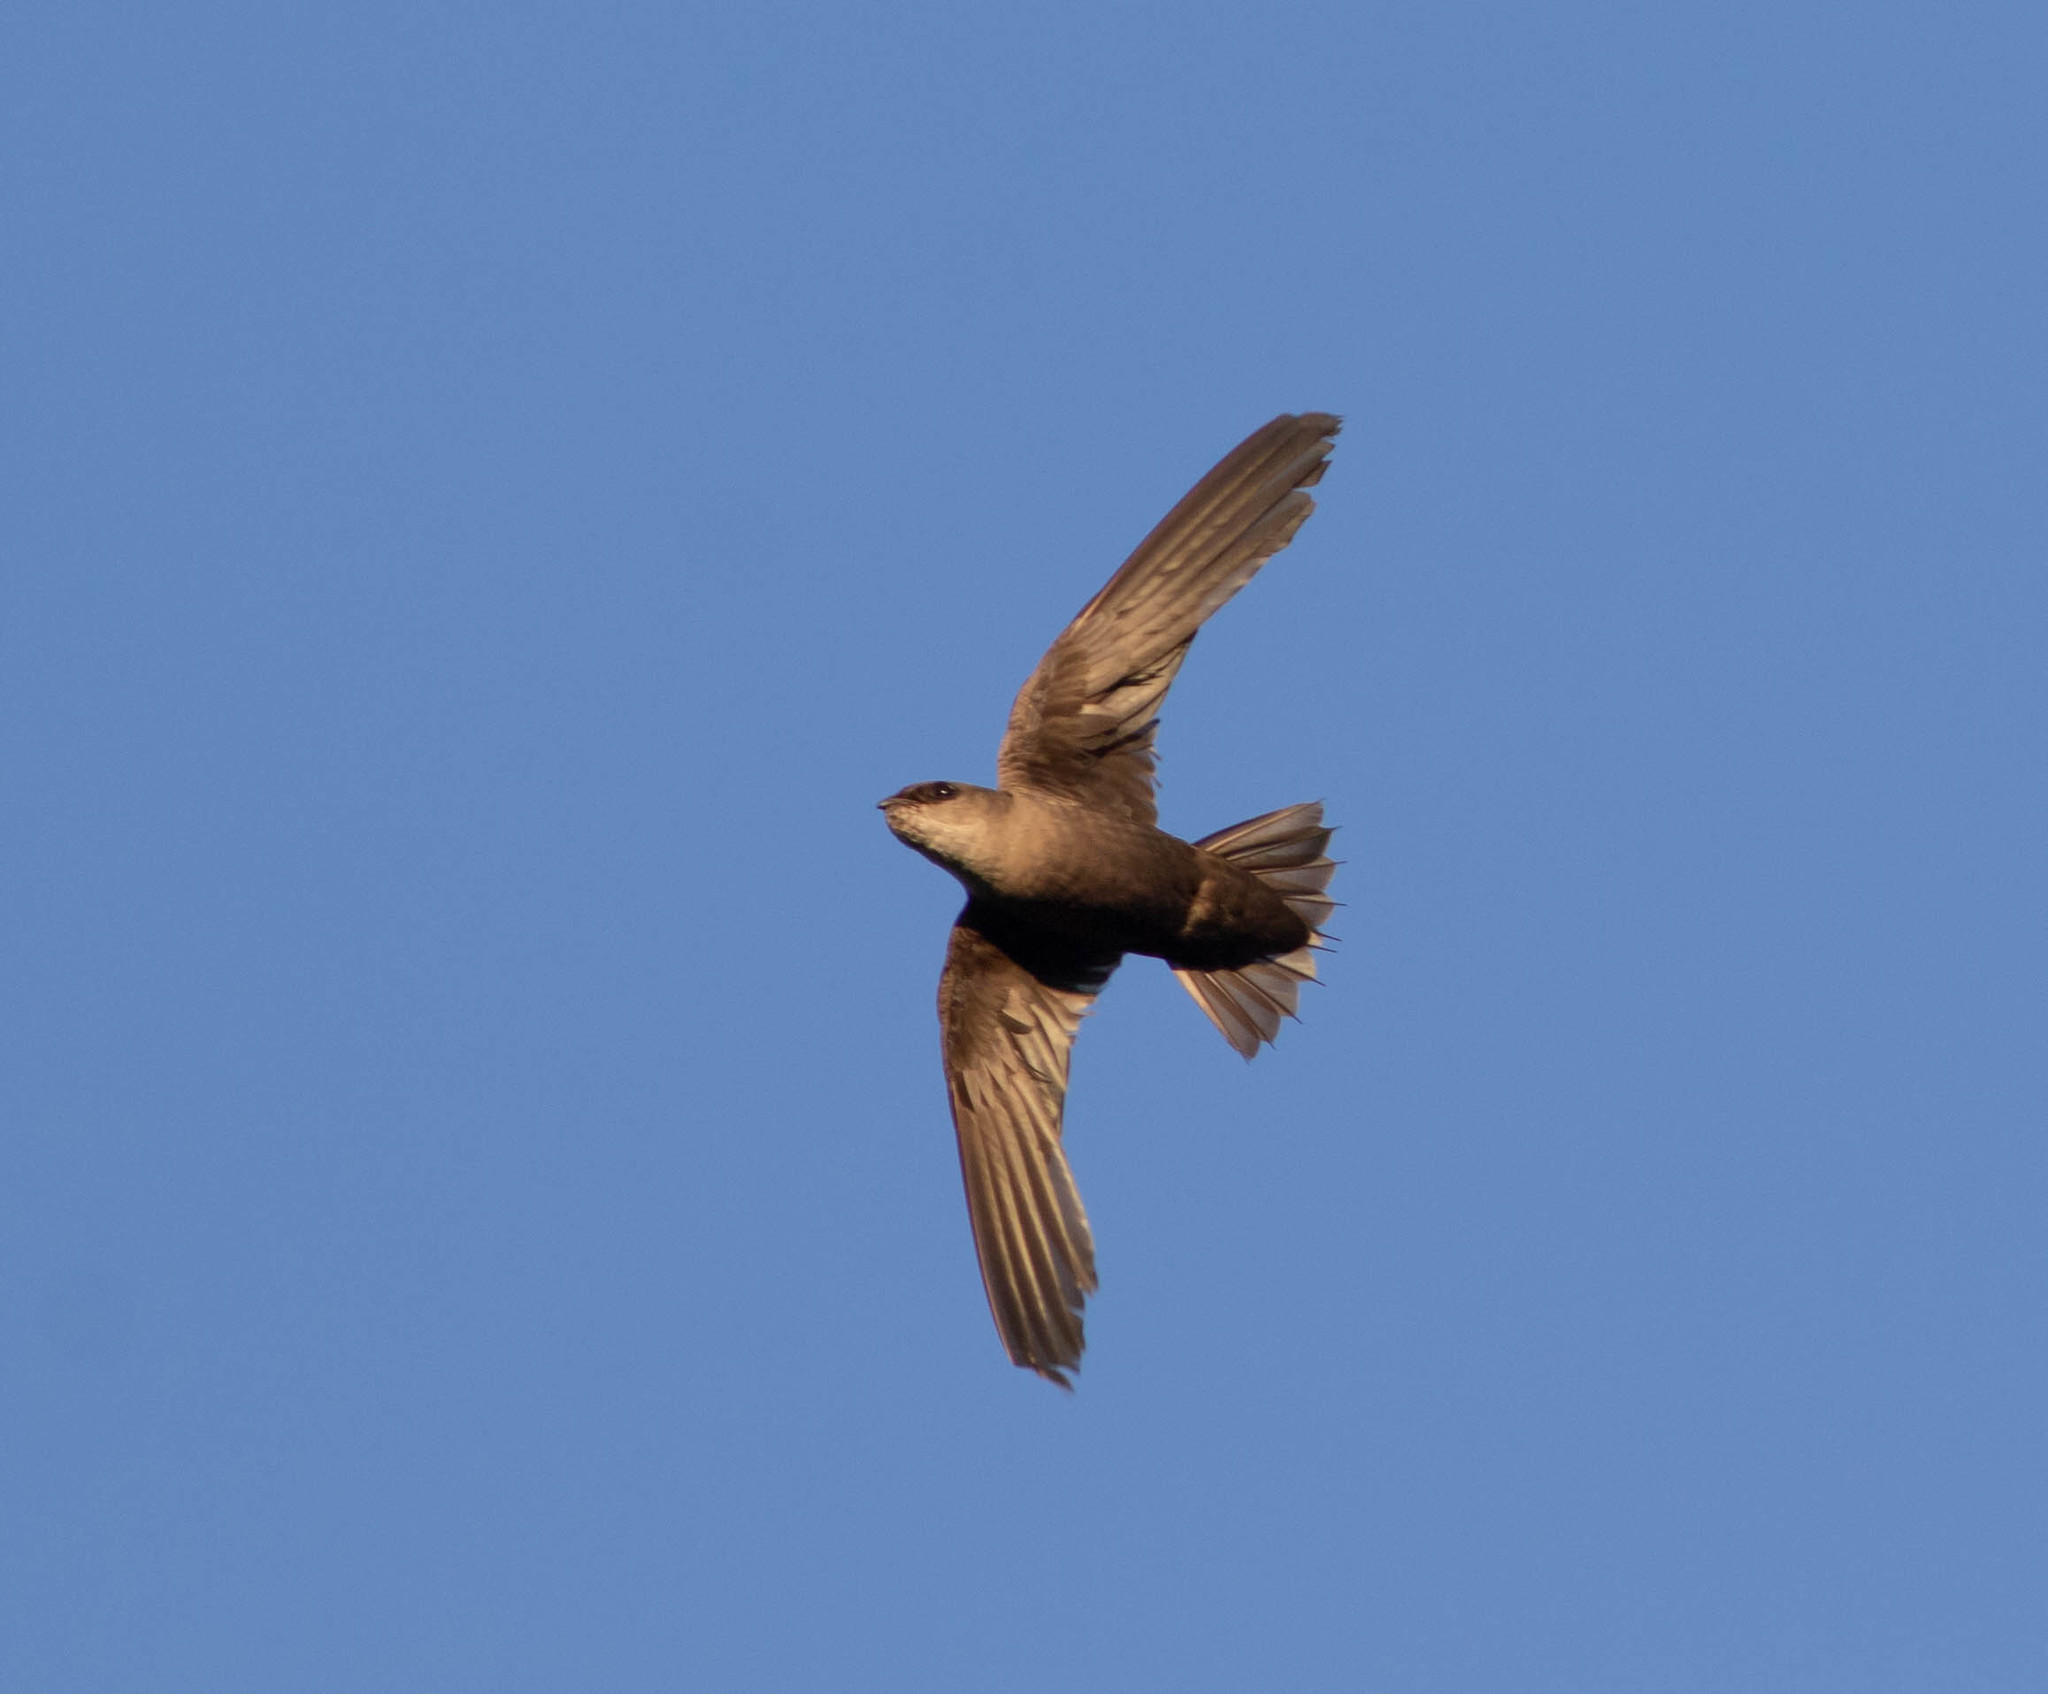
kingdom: Animalia
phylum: Chordata
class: Aves
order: Apodiformes
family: Apodidae
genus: Chaetura
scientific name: Chaetura pelagica
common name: Chimney swift
